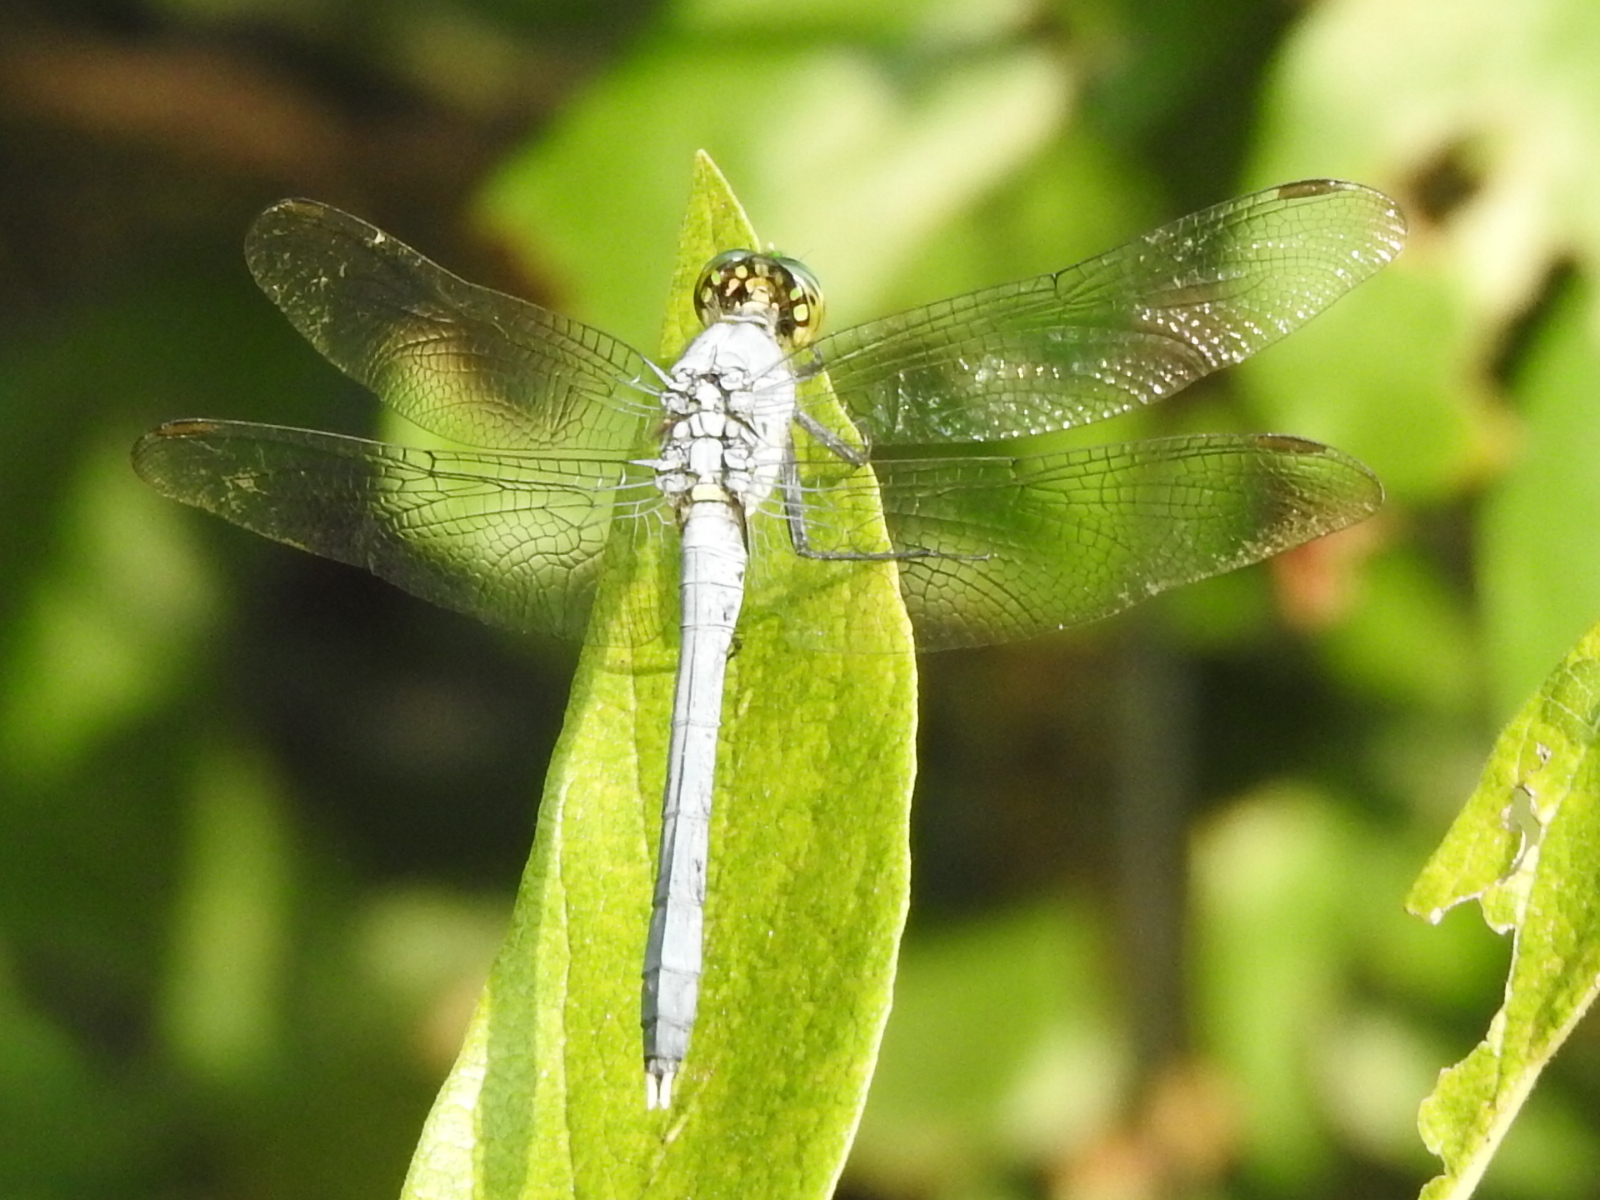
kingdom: Animalia
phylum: Arthropoda
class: Insecta
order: Odonata
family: Libellulidae
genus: Erythemis
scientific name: Erythemis simplicicollis
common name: Eastern pondhawk
